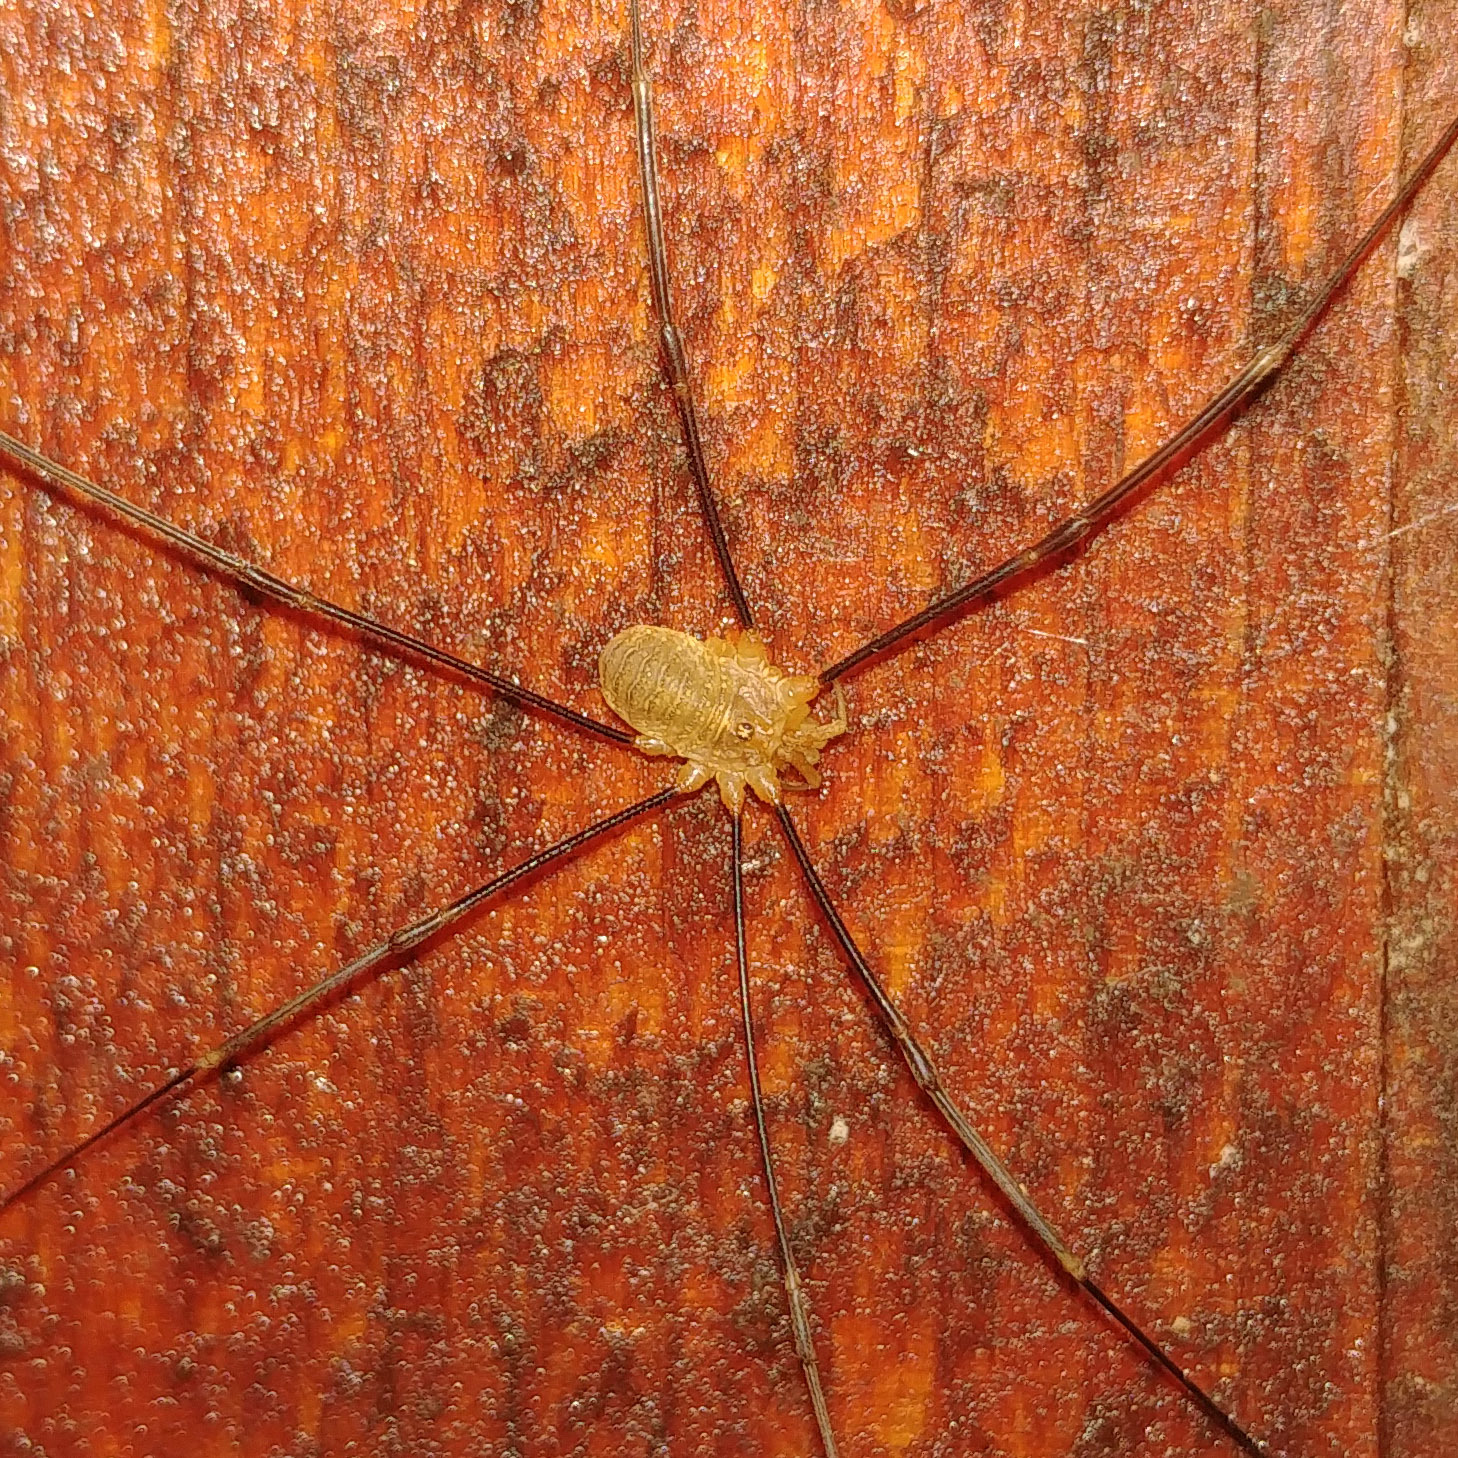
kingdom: Animalia
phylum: Arthropoda
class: Arachnida
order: Opiliones
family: Phalangiidae
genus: Opilio
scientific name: Opilio canestrinii
